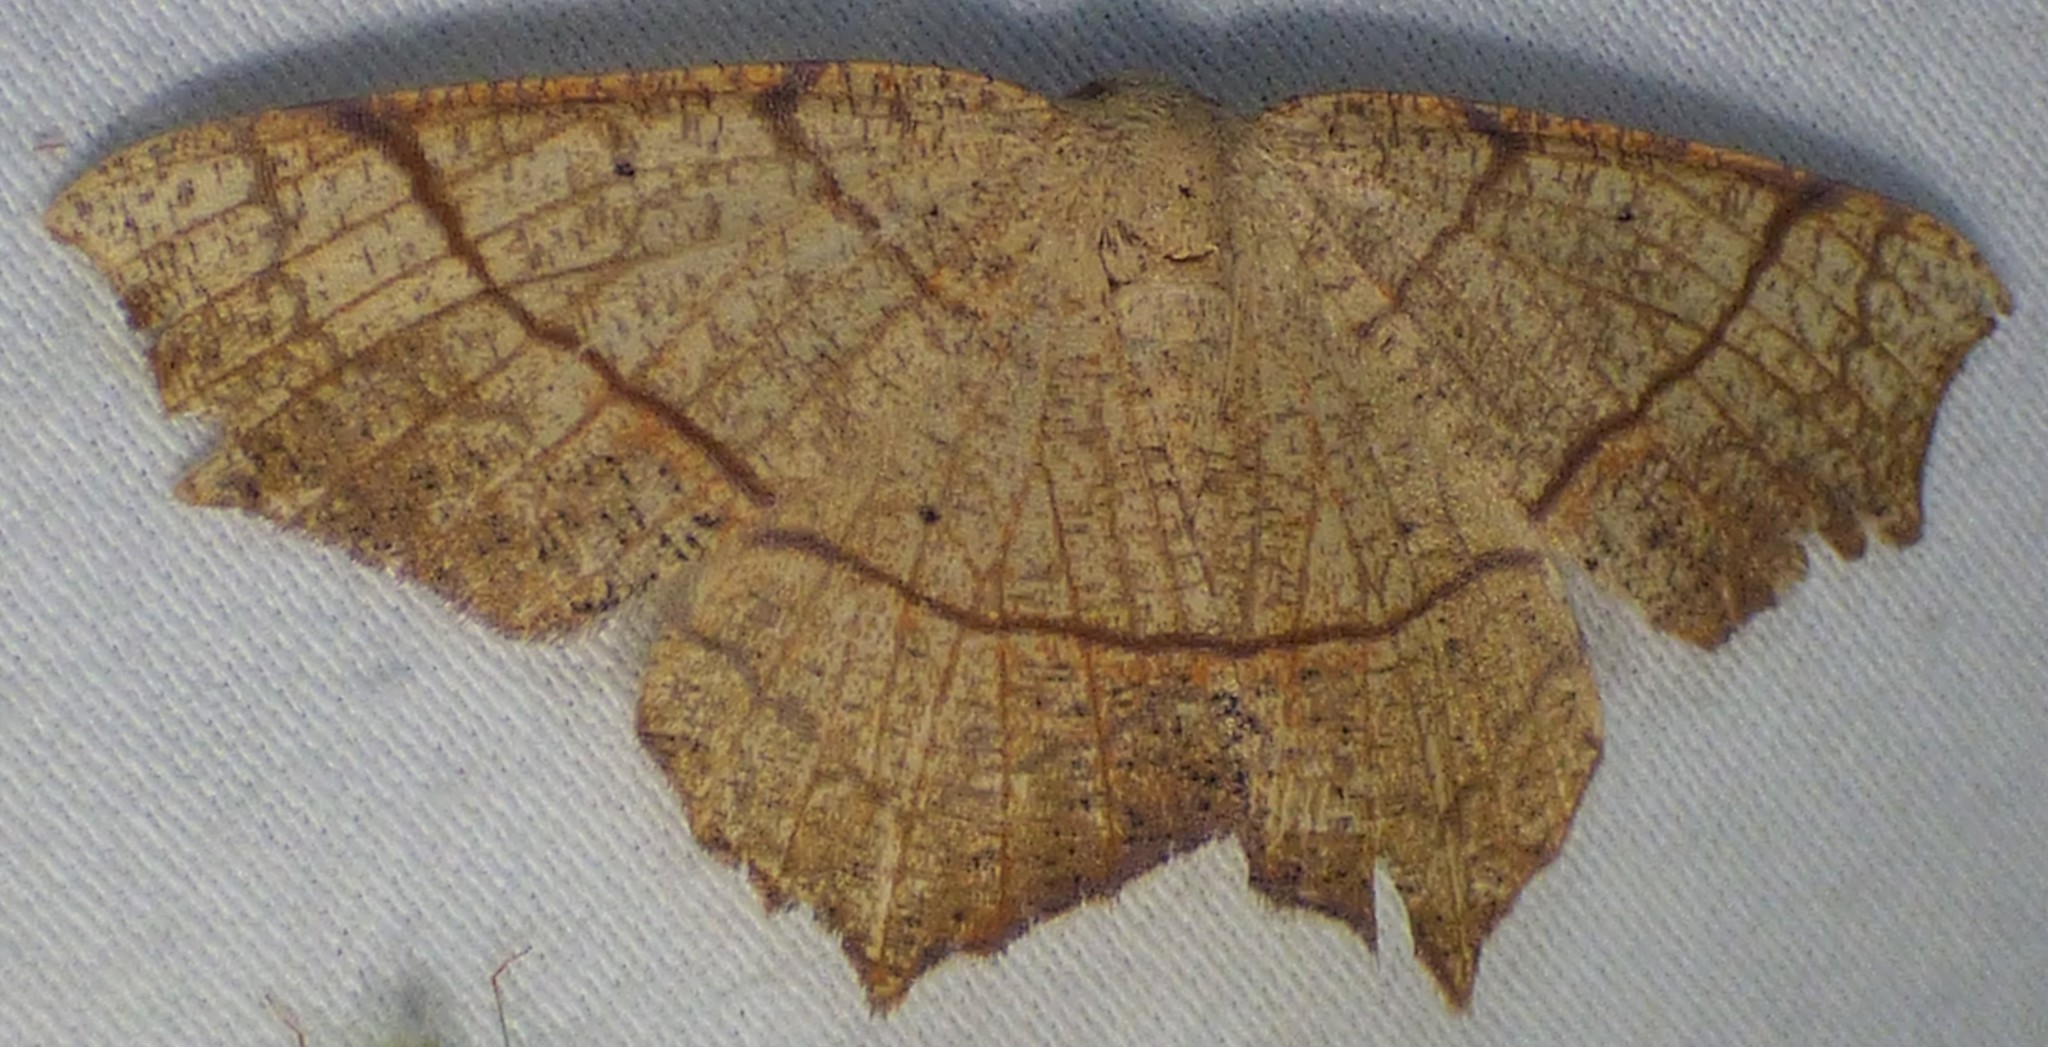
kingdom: Animalia
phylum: Arthropoda
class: Insecta
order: Lepidoptera
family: Geometridae
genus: Besma
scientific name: Besma quercivoraria
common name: Oak besma
